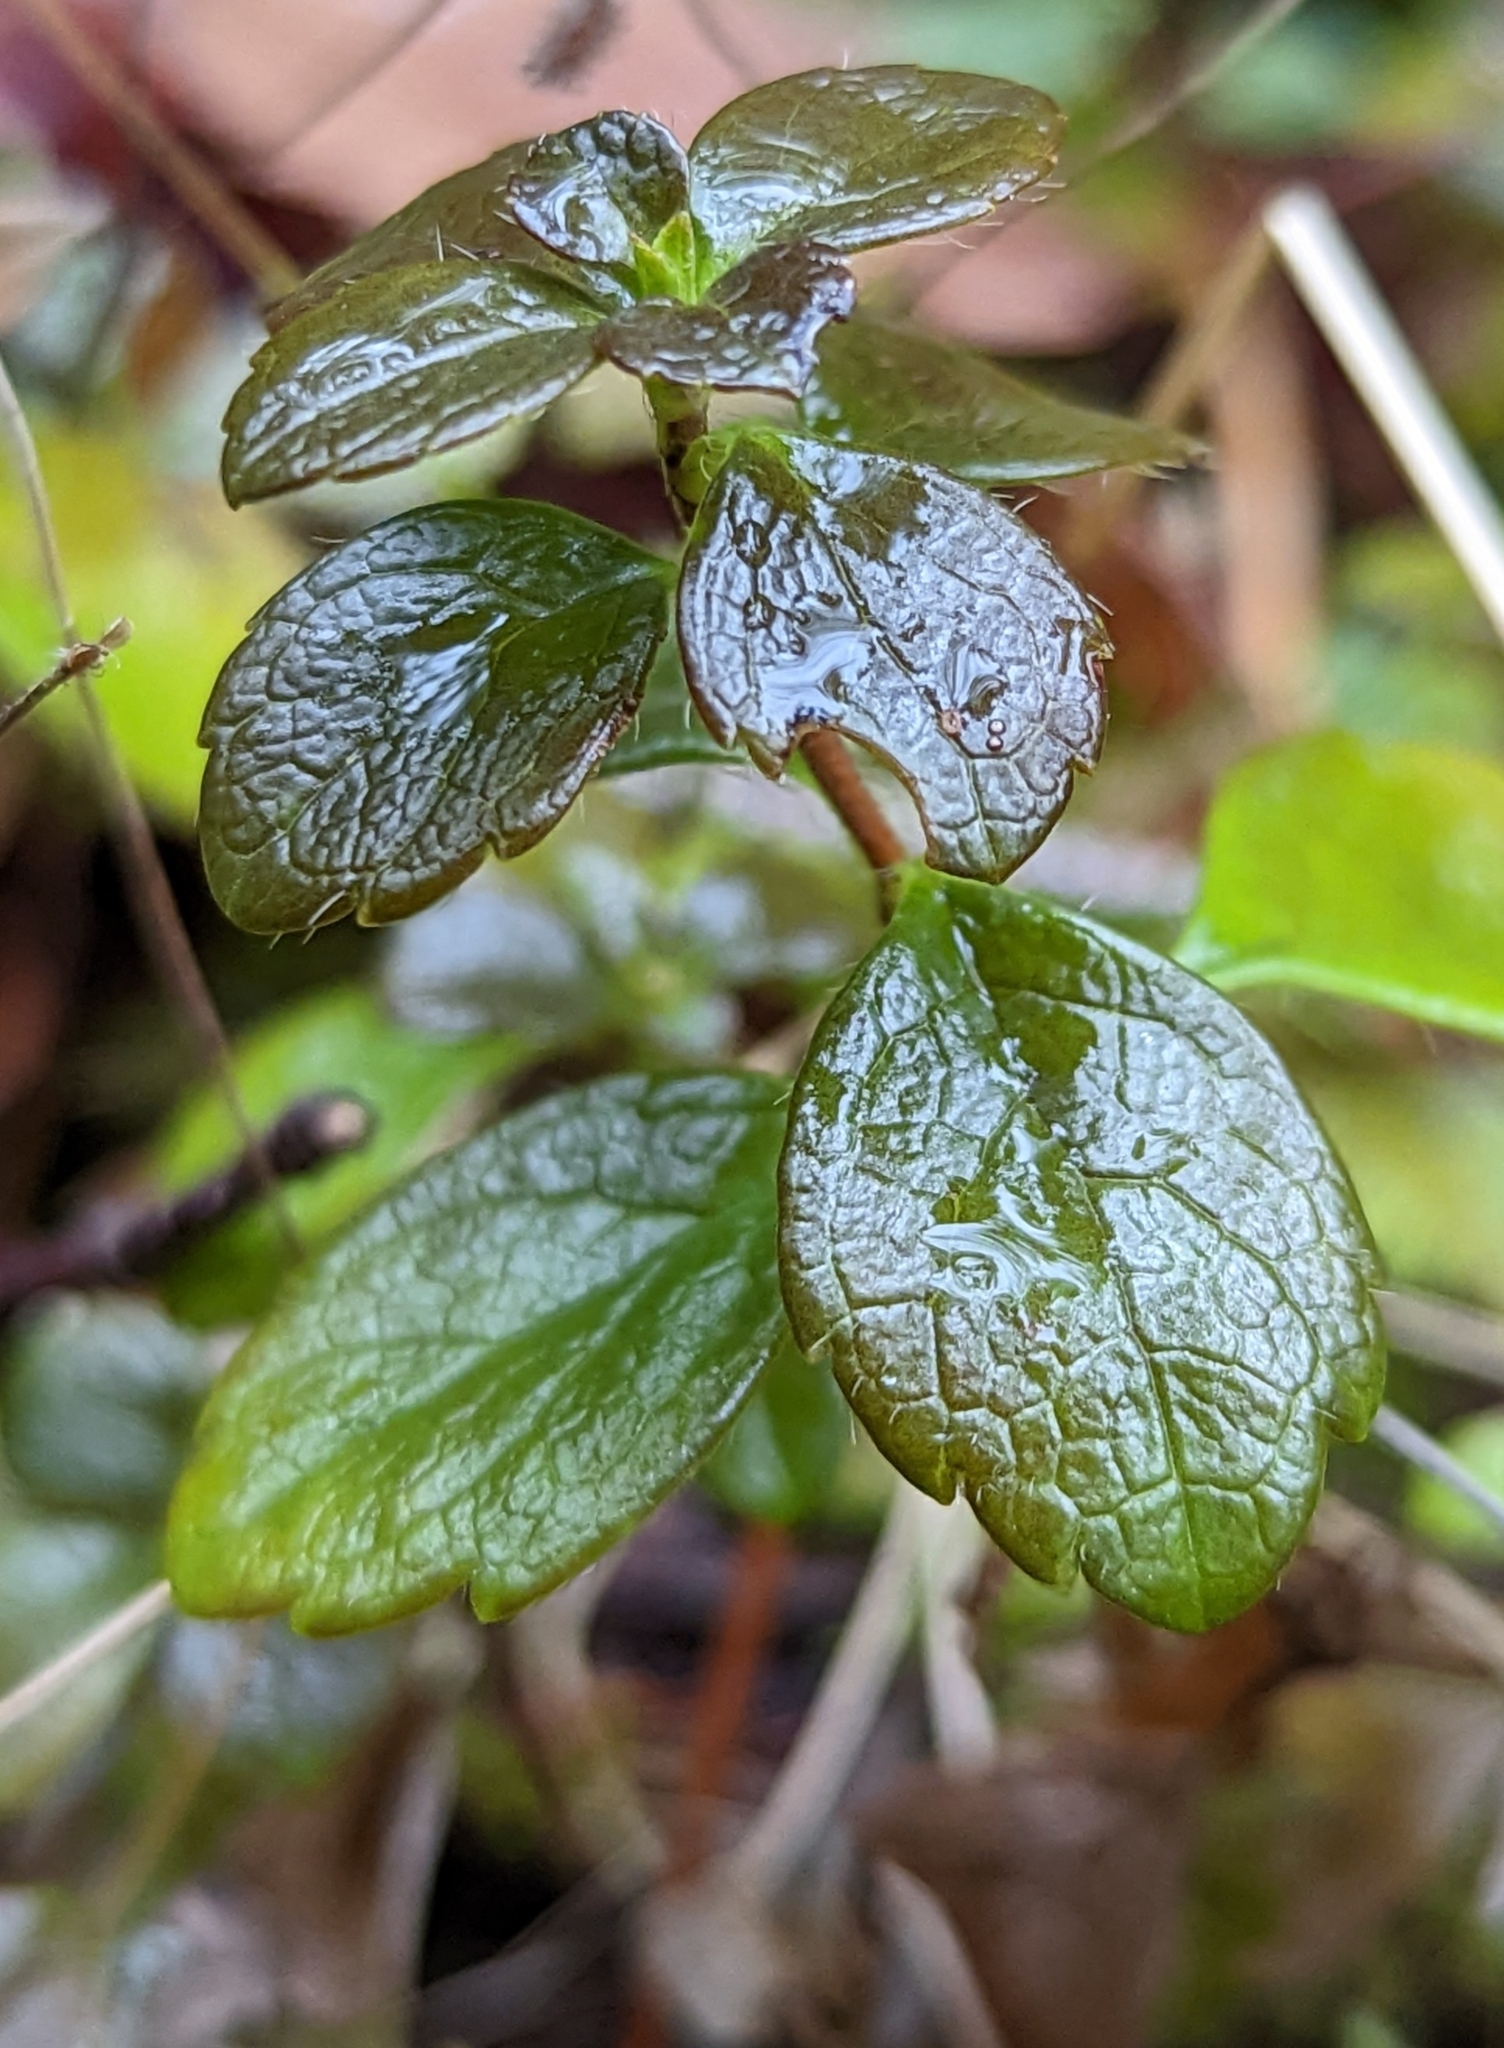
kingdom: Plantae
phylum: Tracheophyta
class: Magnoliopsida
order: Dipsacales
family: Caprifoliaceae
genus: Linnaea
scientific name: Linnaea borealis
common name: Twinflower
